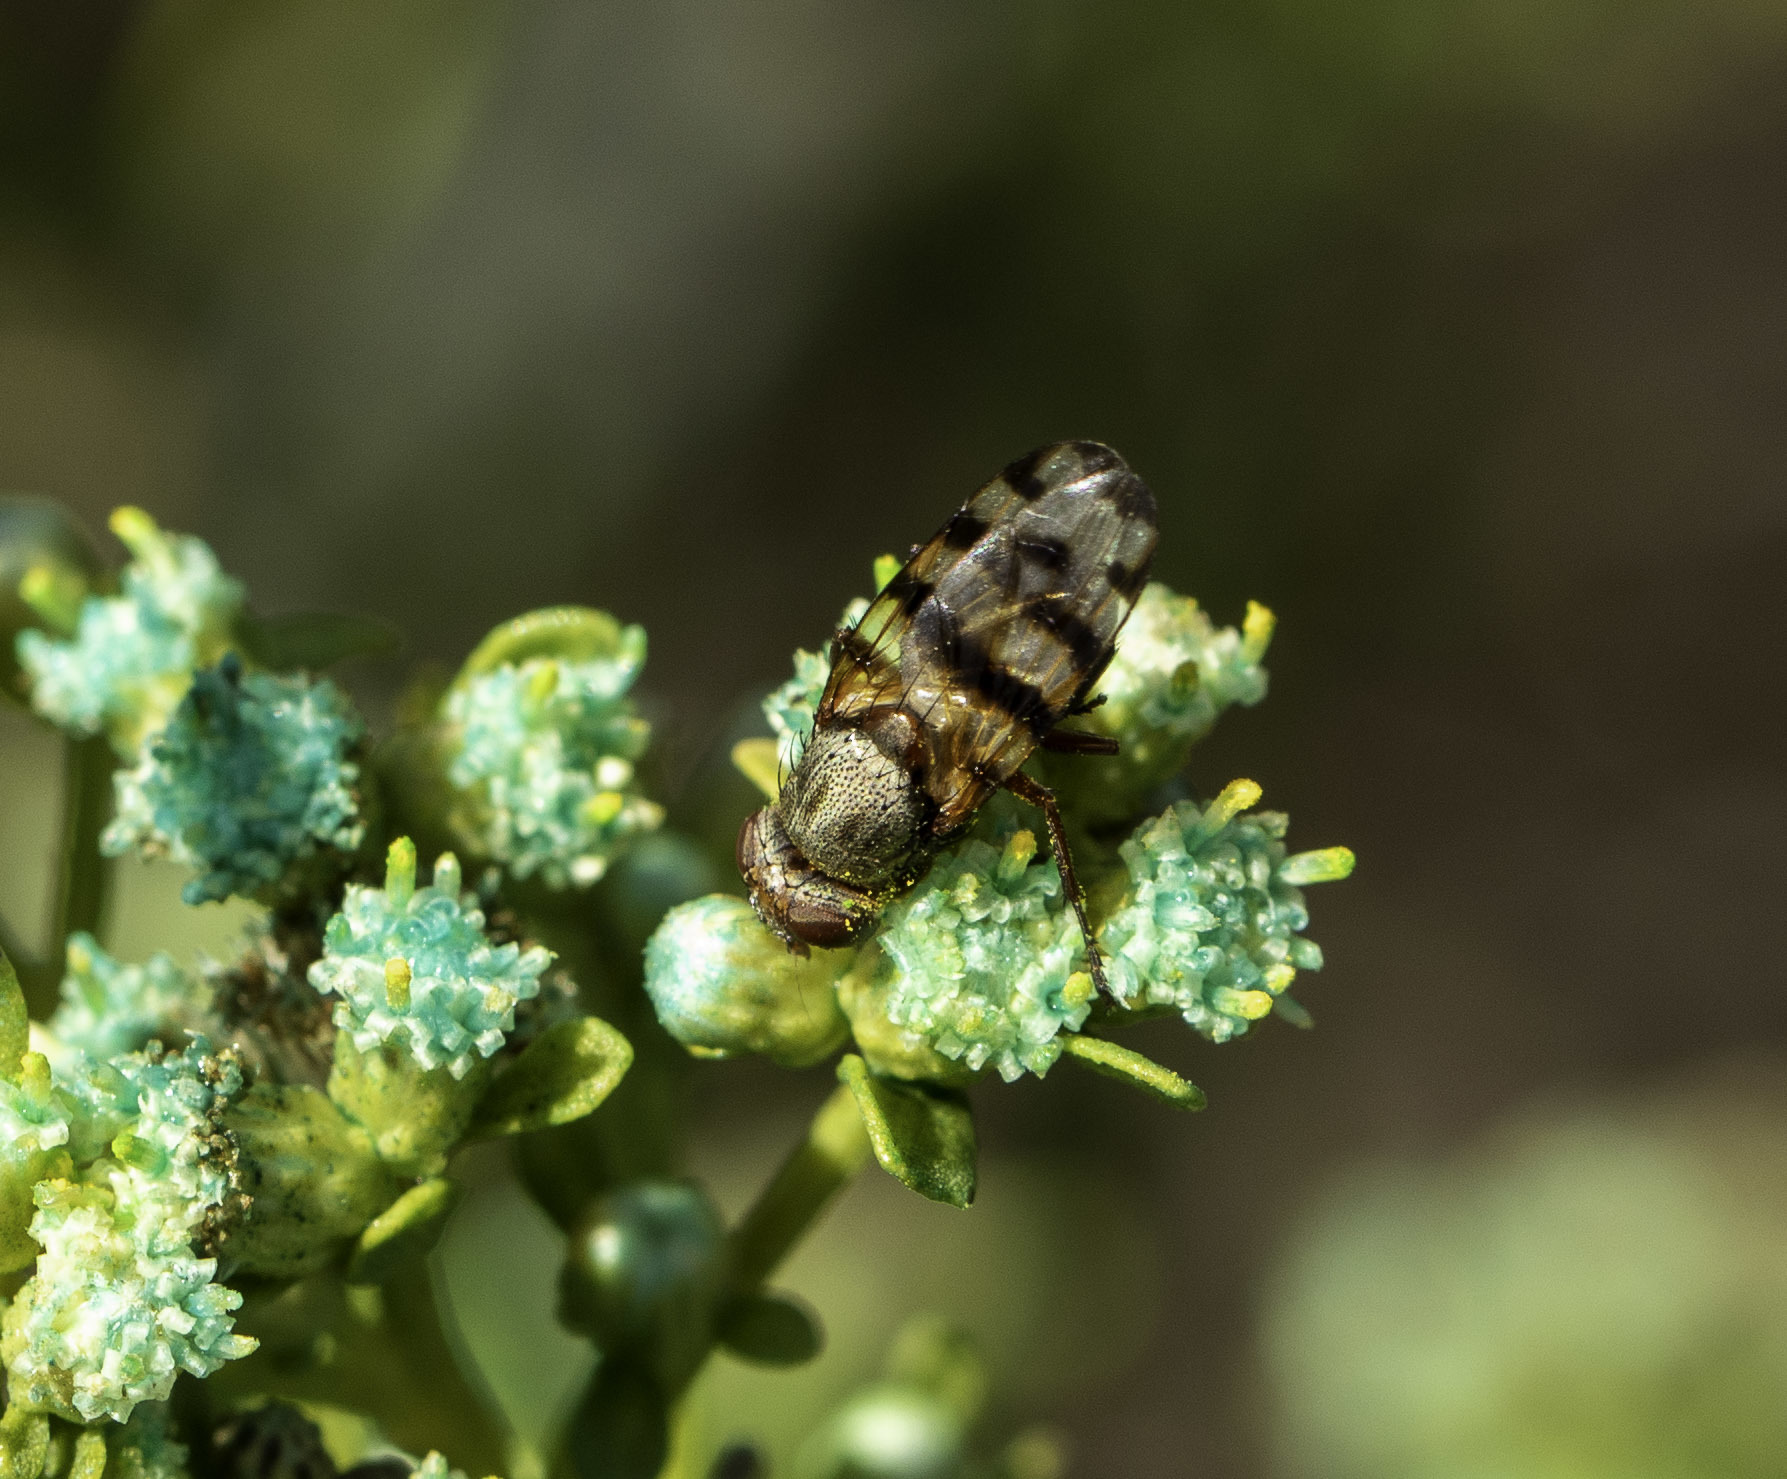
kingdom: Animalia
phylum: Arthropoda
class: Insecta
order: Diptera
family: Ulidiidae
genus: Ceroxys
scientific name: Ceroxys latiusculus
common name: Picture-winged fly
